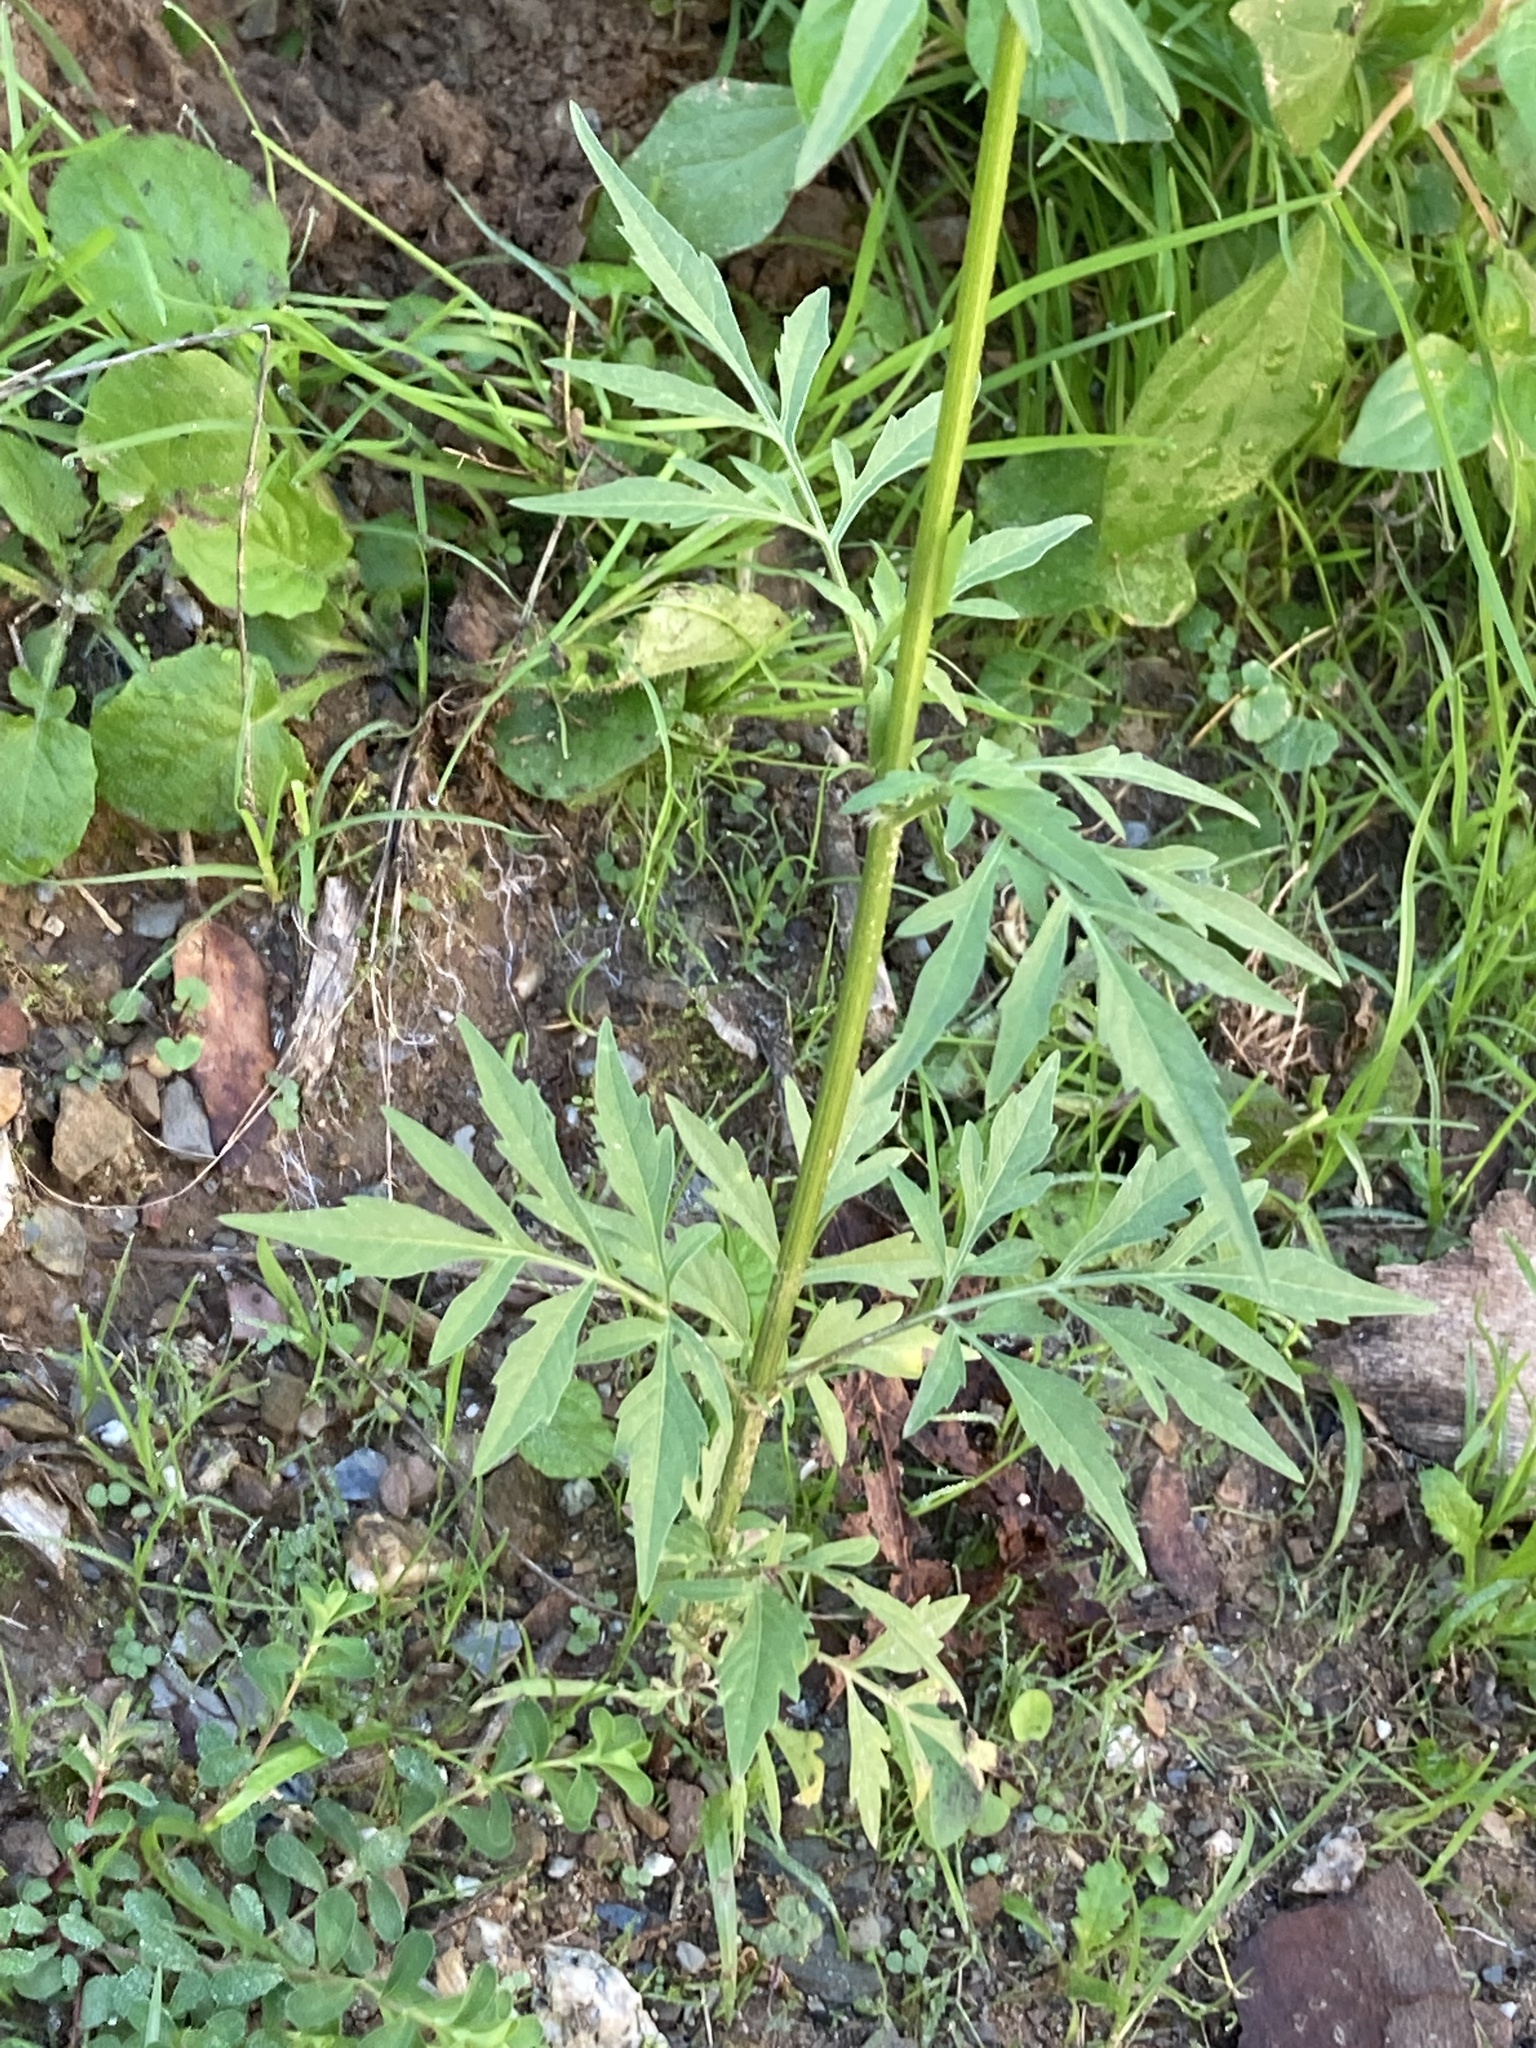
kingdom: Plantae
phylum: Tracheophyta
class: Magnoliopsida
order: Asterales
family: Asteraceae
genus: Bidens
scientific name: Bidens subalternans
